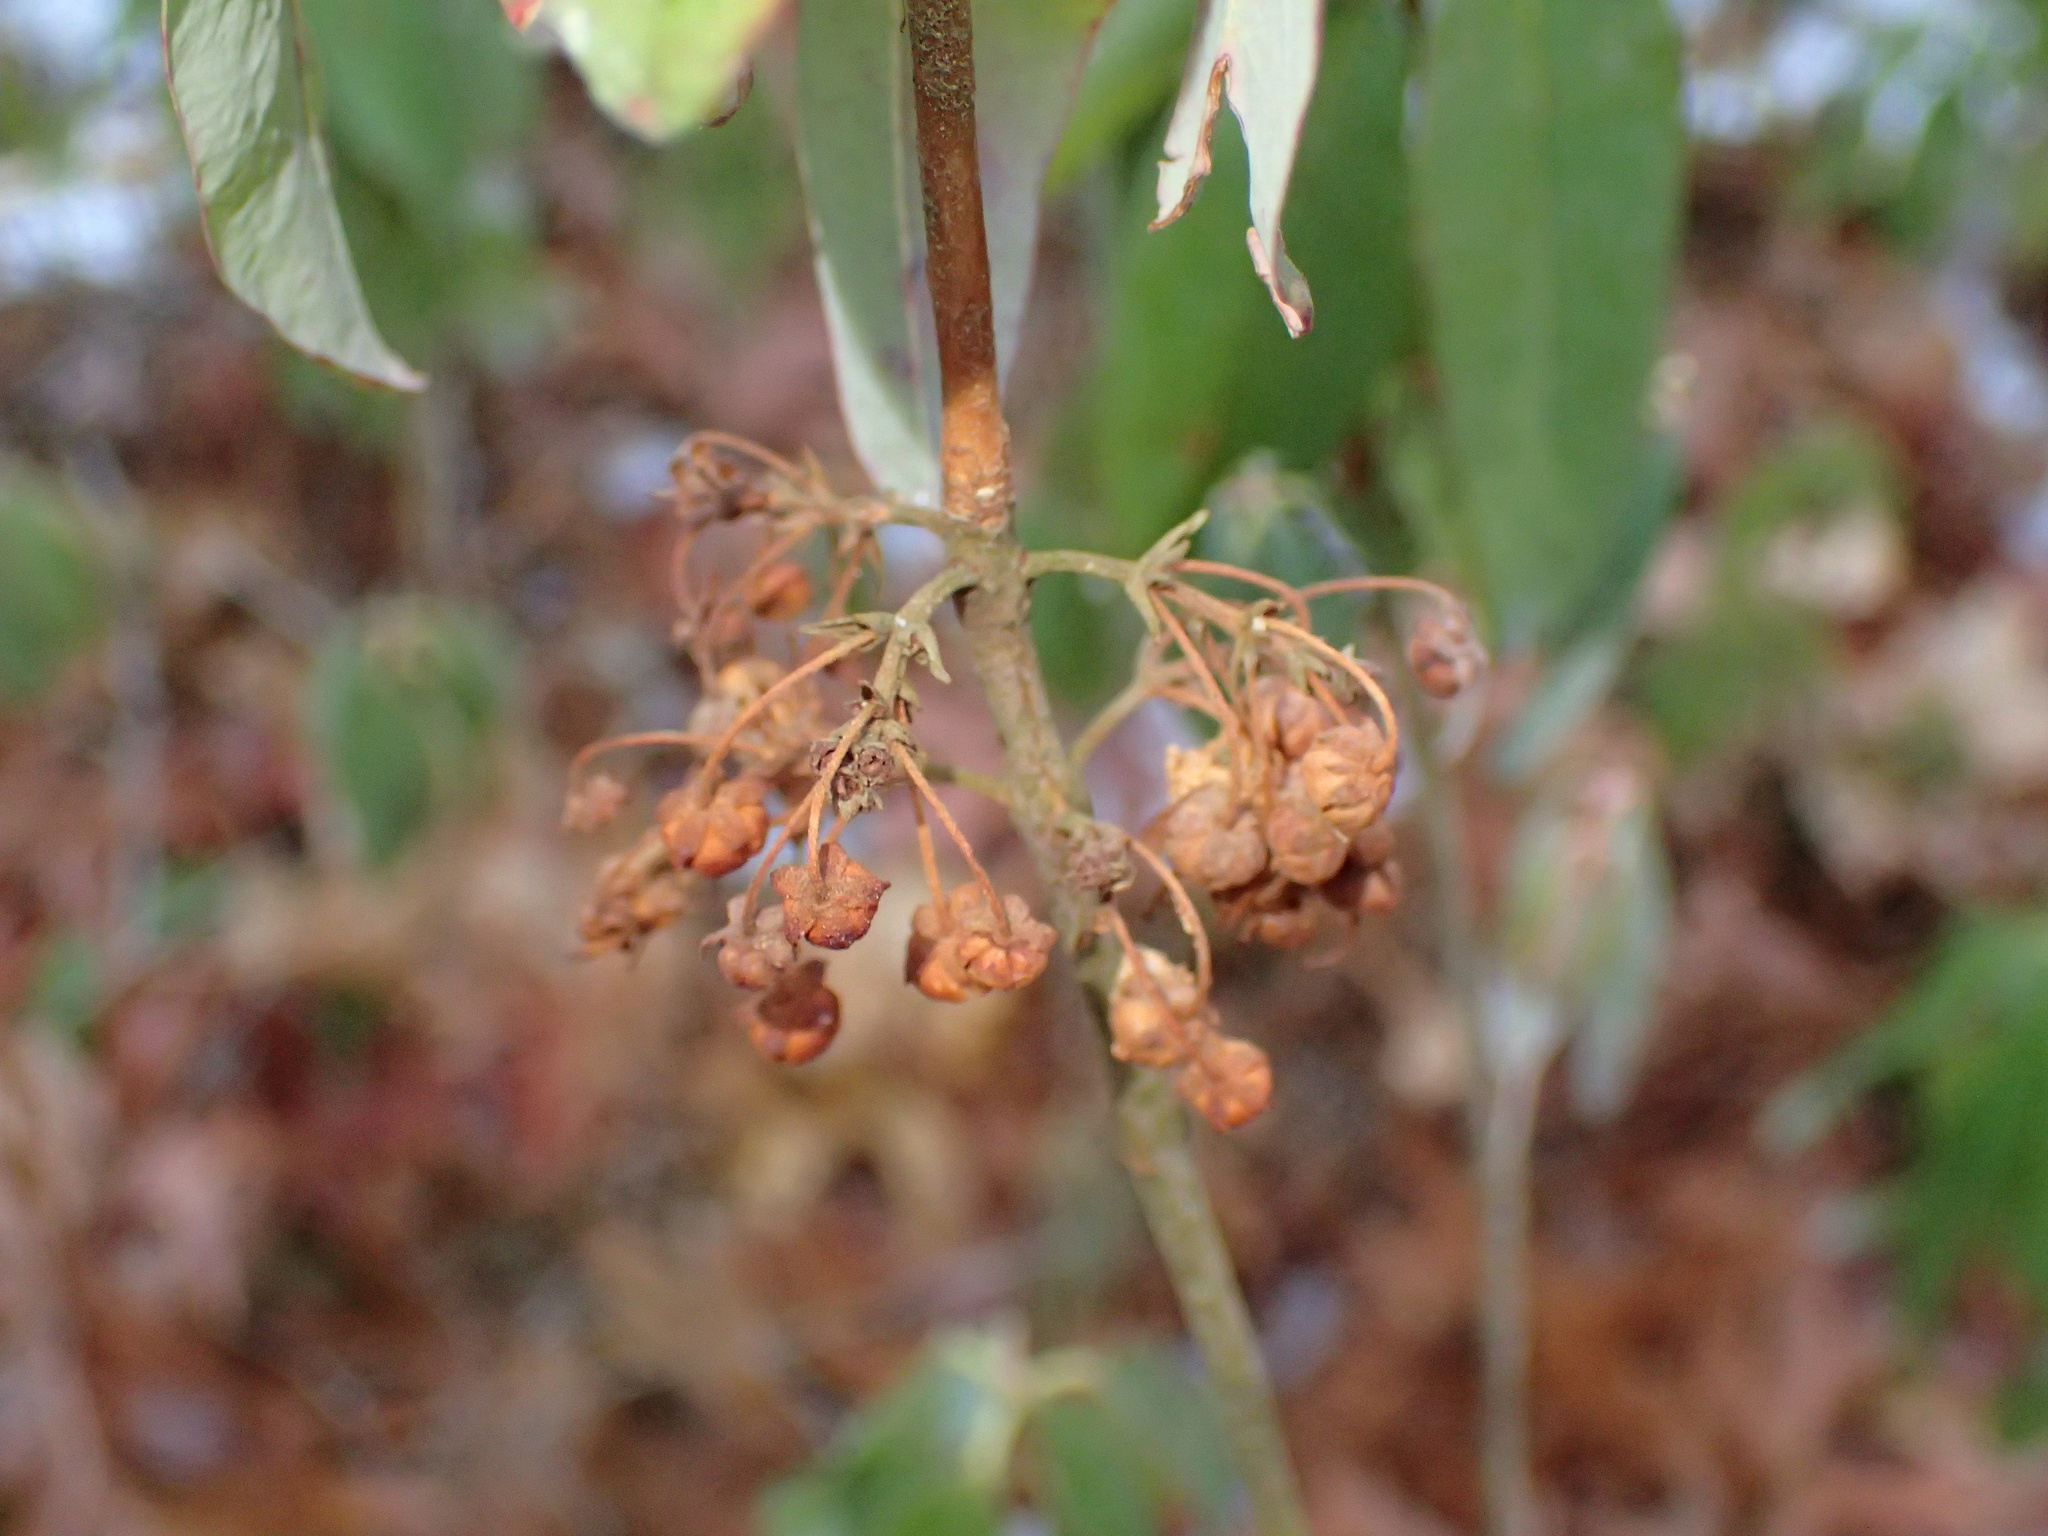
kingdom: Plantae
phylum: Tracheophyta
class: Magnoliopsida
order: Ericales
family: Ericaceae
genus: Kalmia
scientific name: Kalmia angustifolia
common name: Sheep-laurel
